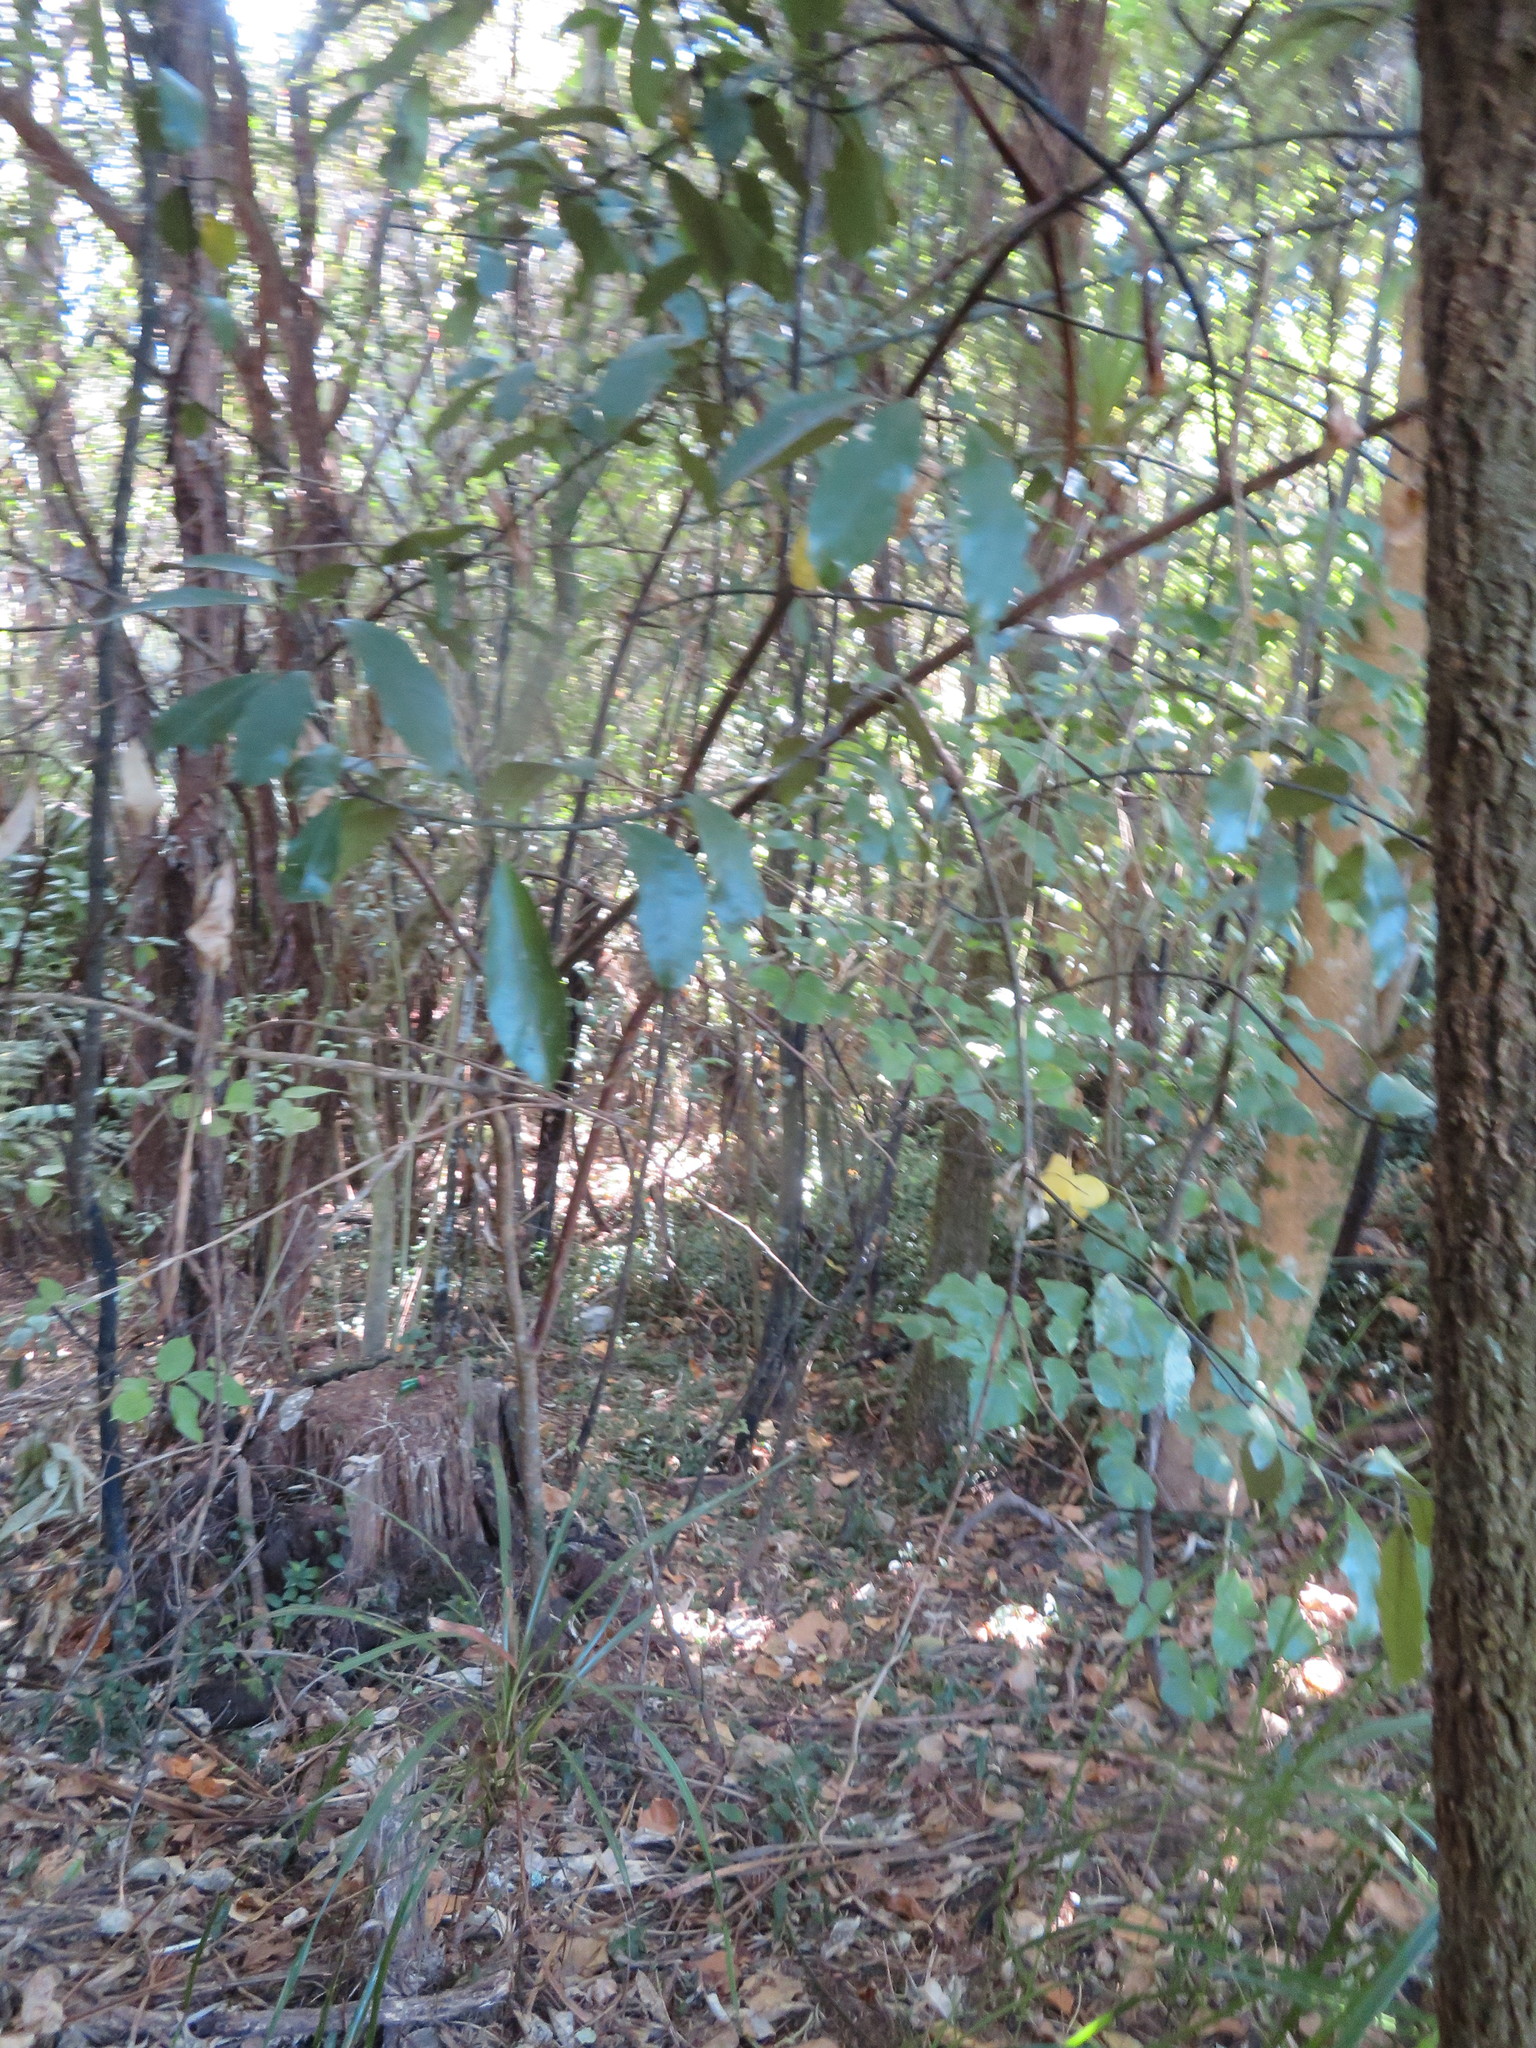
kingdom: Plantae
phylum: Tracheophyta
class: Magnoliopsida
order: Laurales
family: Monimiaceae
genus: Hedycarya
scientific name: Hedycarya arborea
